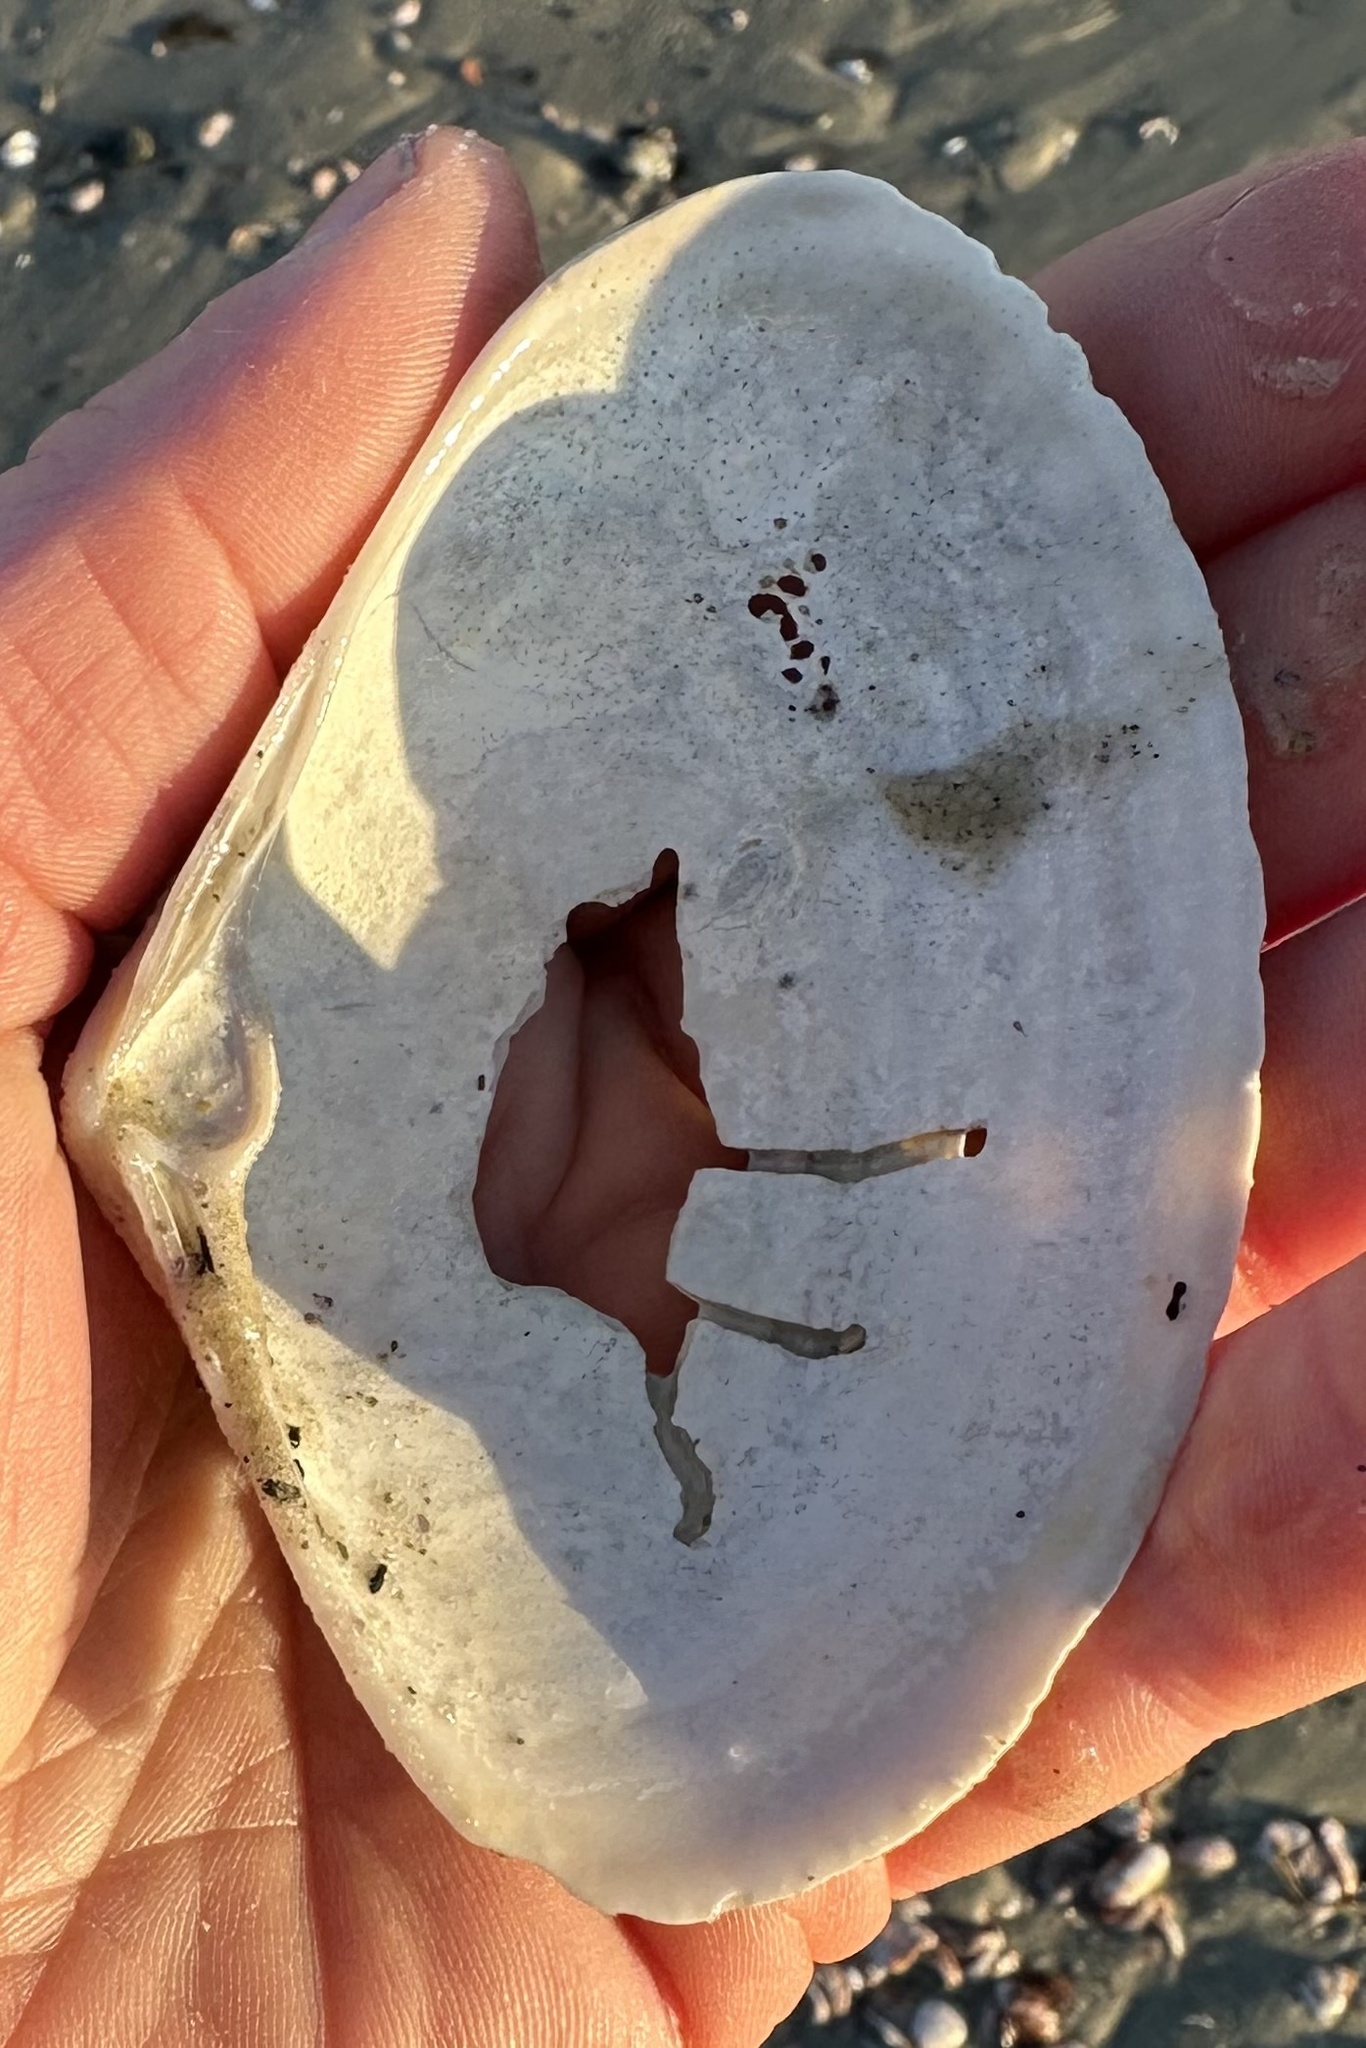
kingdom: Animalia
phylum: Mollusca
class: Bivalvia
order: Venerida
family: Mactridae
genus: Spisula
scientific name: Spisula solidissima
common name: Atlantic surf clam
